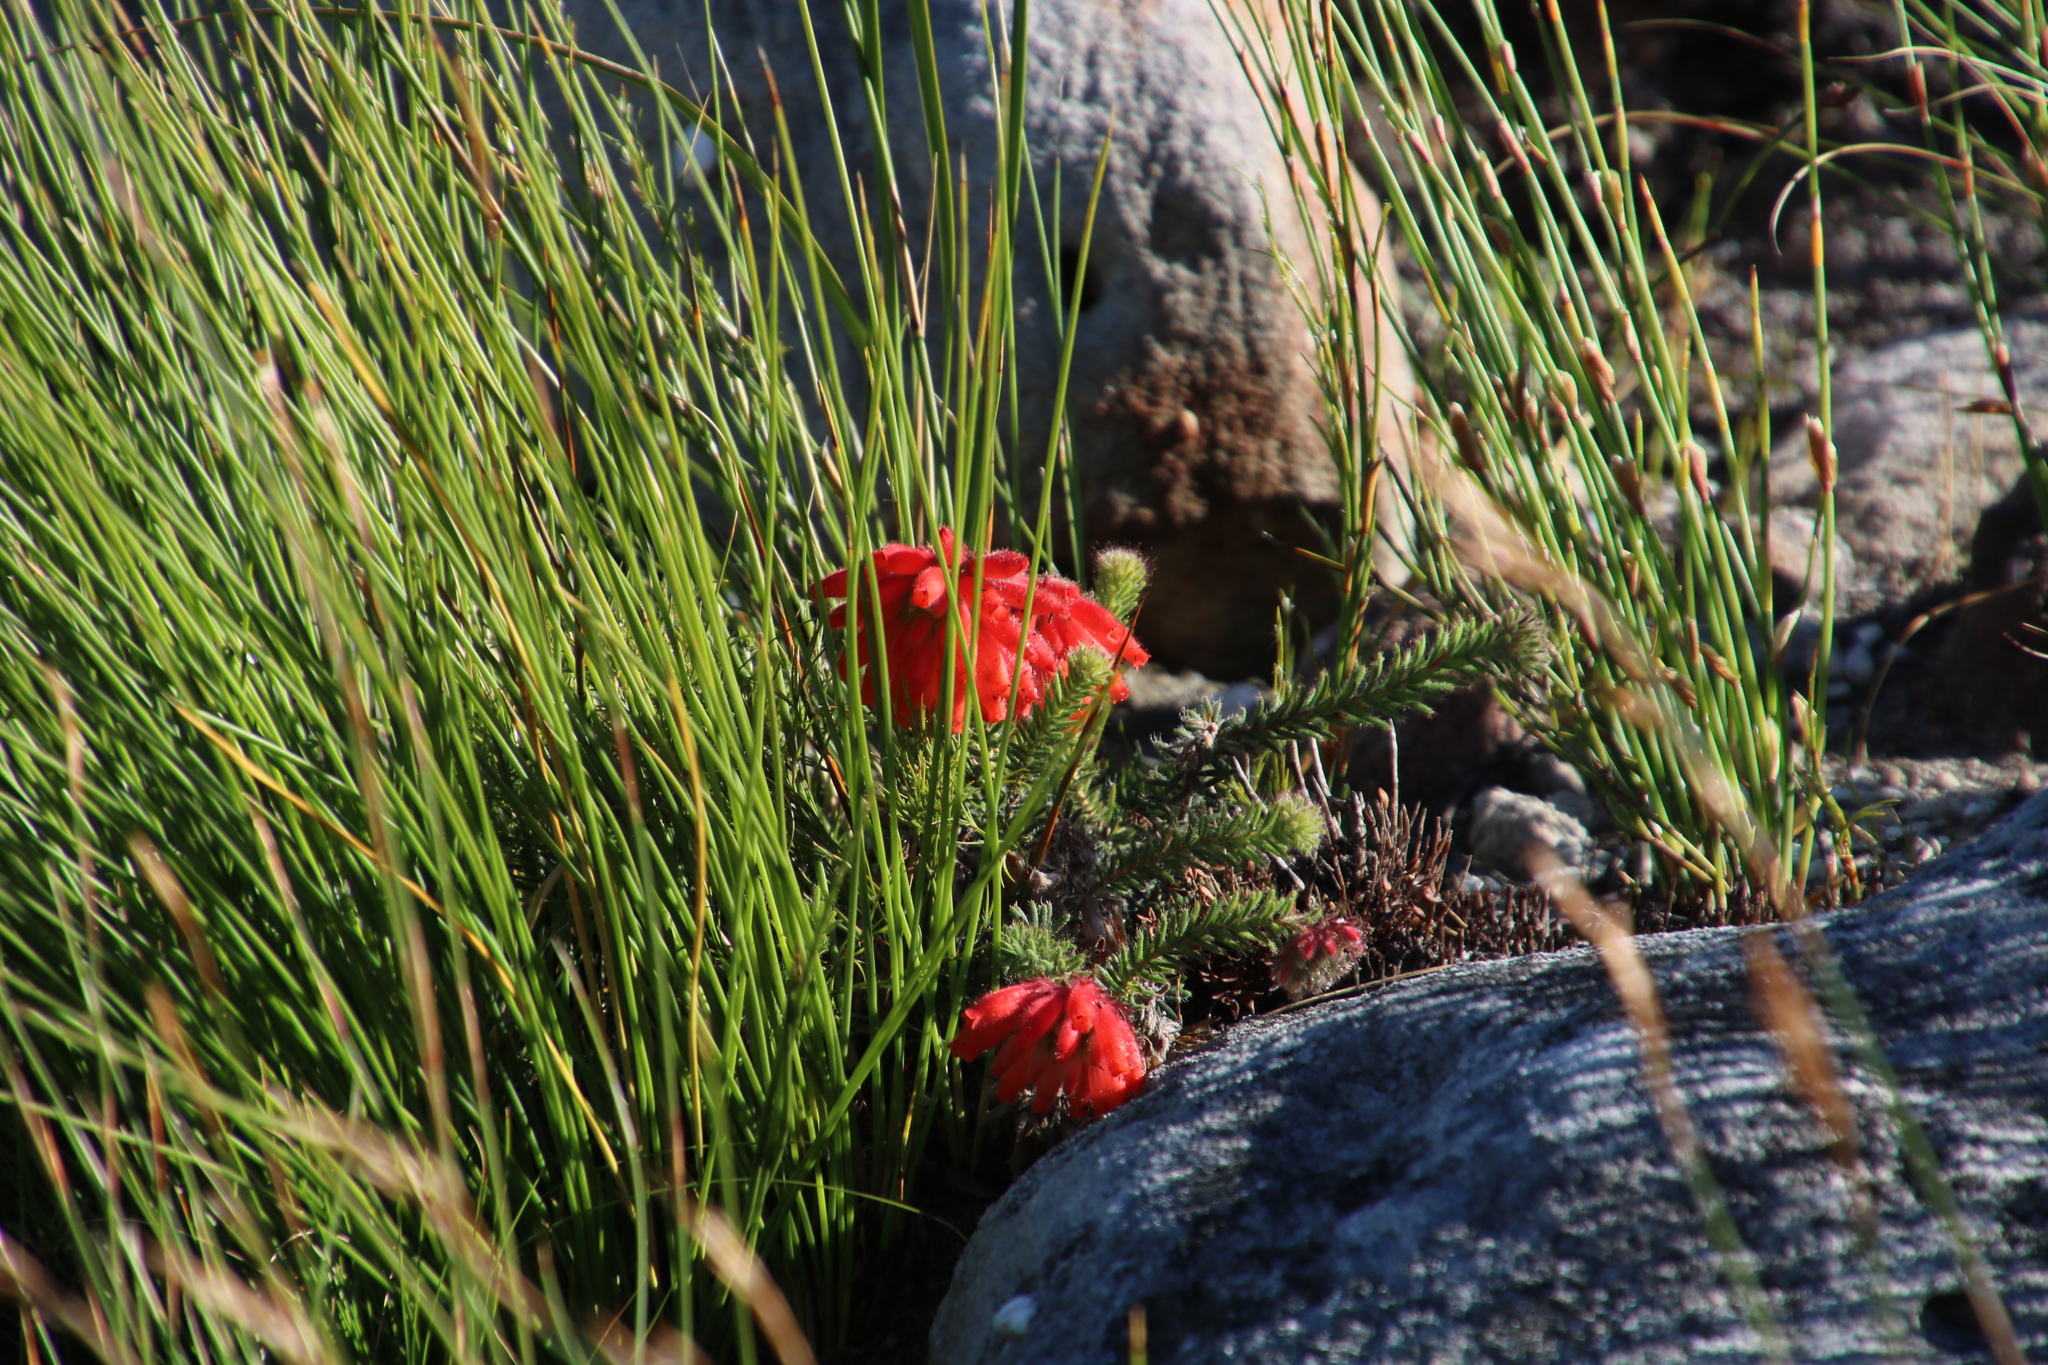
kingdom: Plantae
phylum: Tracheophyta
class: Magnoliopsida
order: Ericales
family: Ericaceae
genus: Erica
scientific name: Erica cerinthoides
